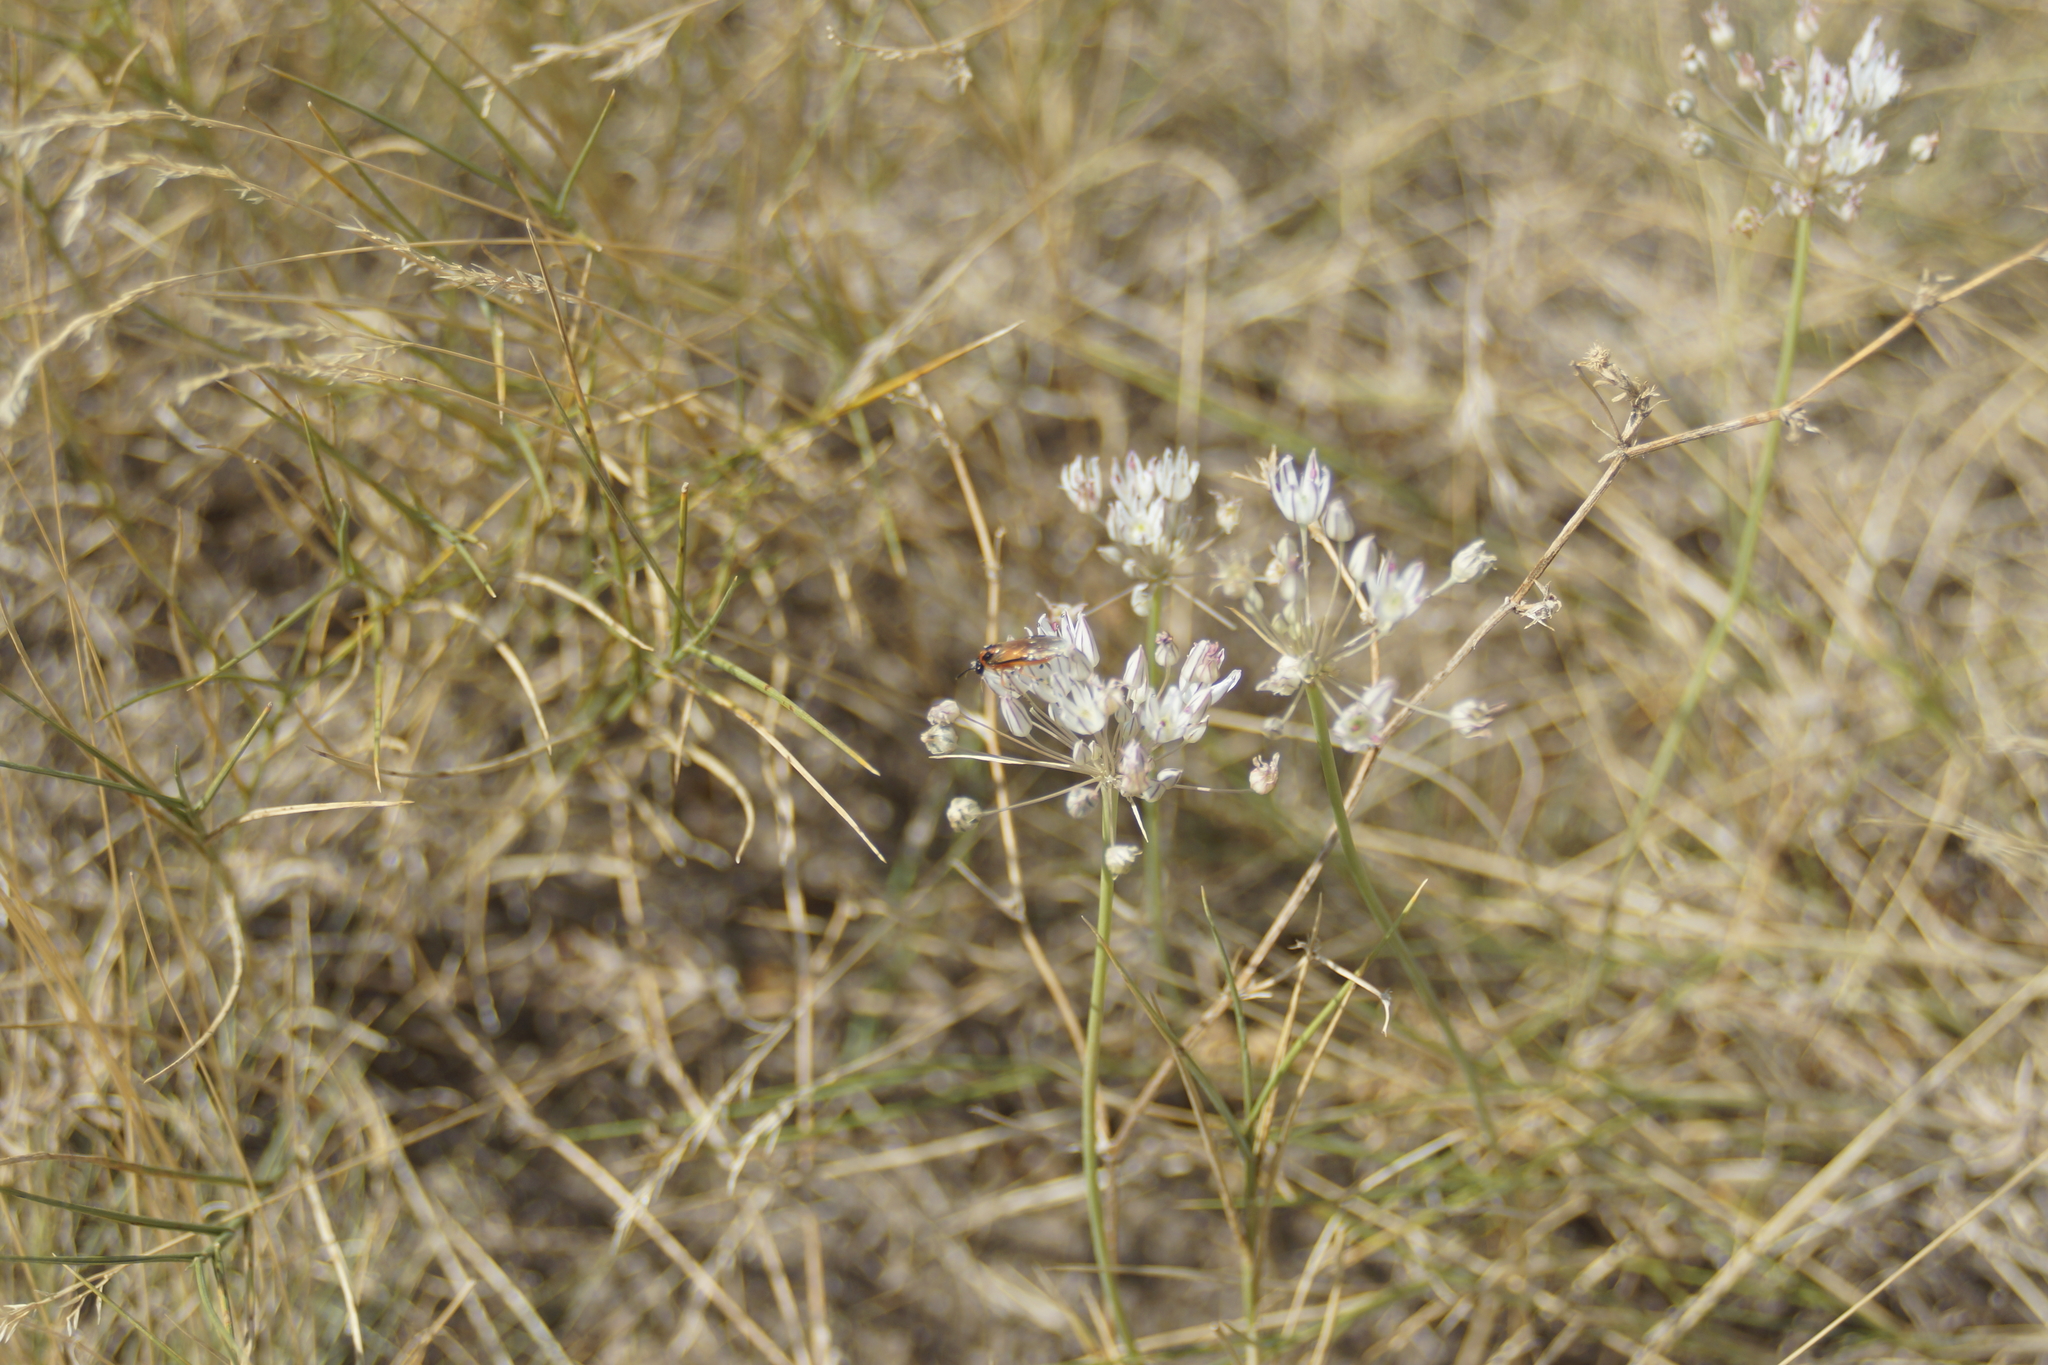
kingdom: Plantae
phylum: Tracheophyta
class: Liliopsida
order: Asparagales
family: Amaryllidaceae
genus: Allium
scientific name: Allium inaequale
